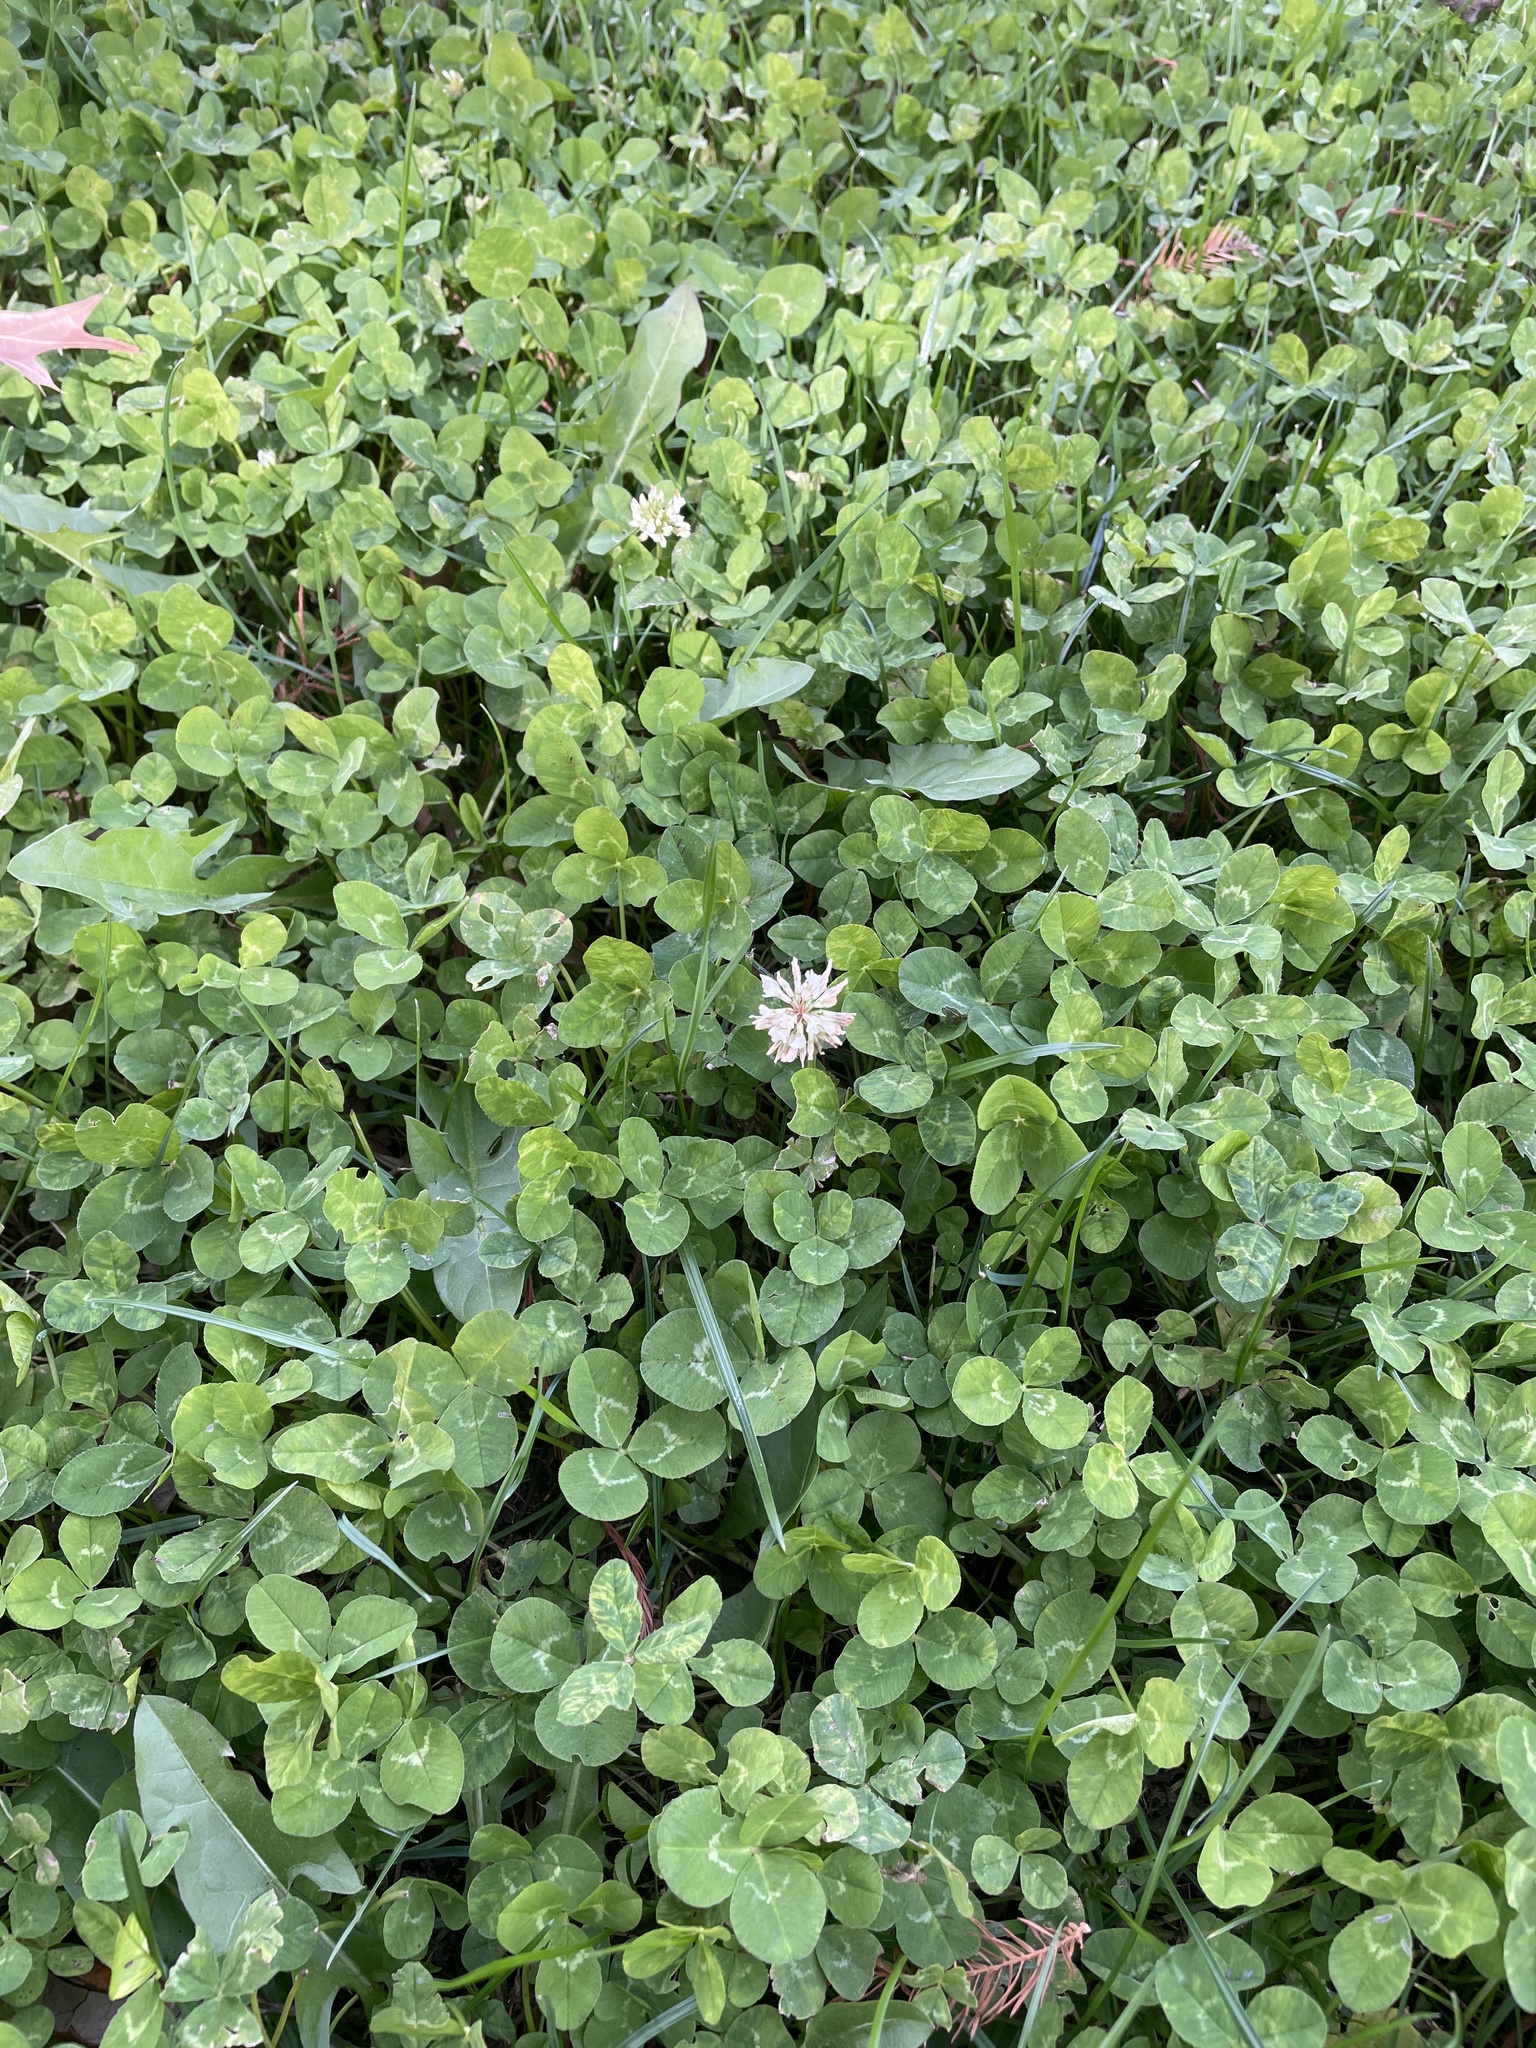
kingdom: Plantae
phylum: Tracheophyta
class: Magnoliopsida
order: Fabales
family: Fabaceae
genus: Trifolium
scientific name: Trifolium repens
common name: White clover
